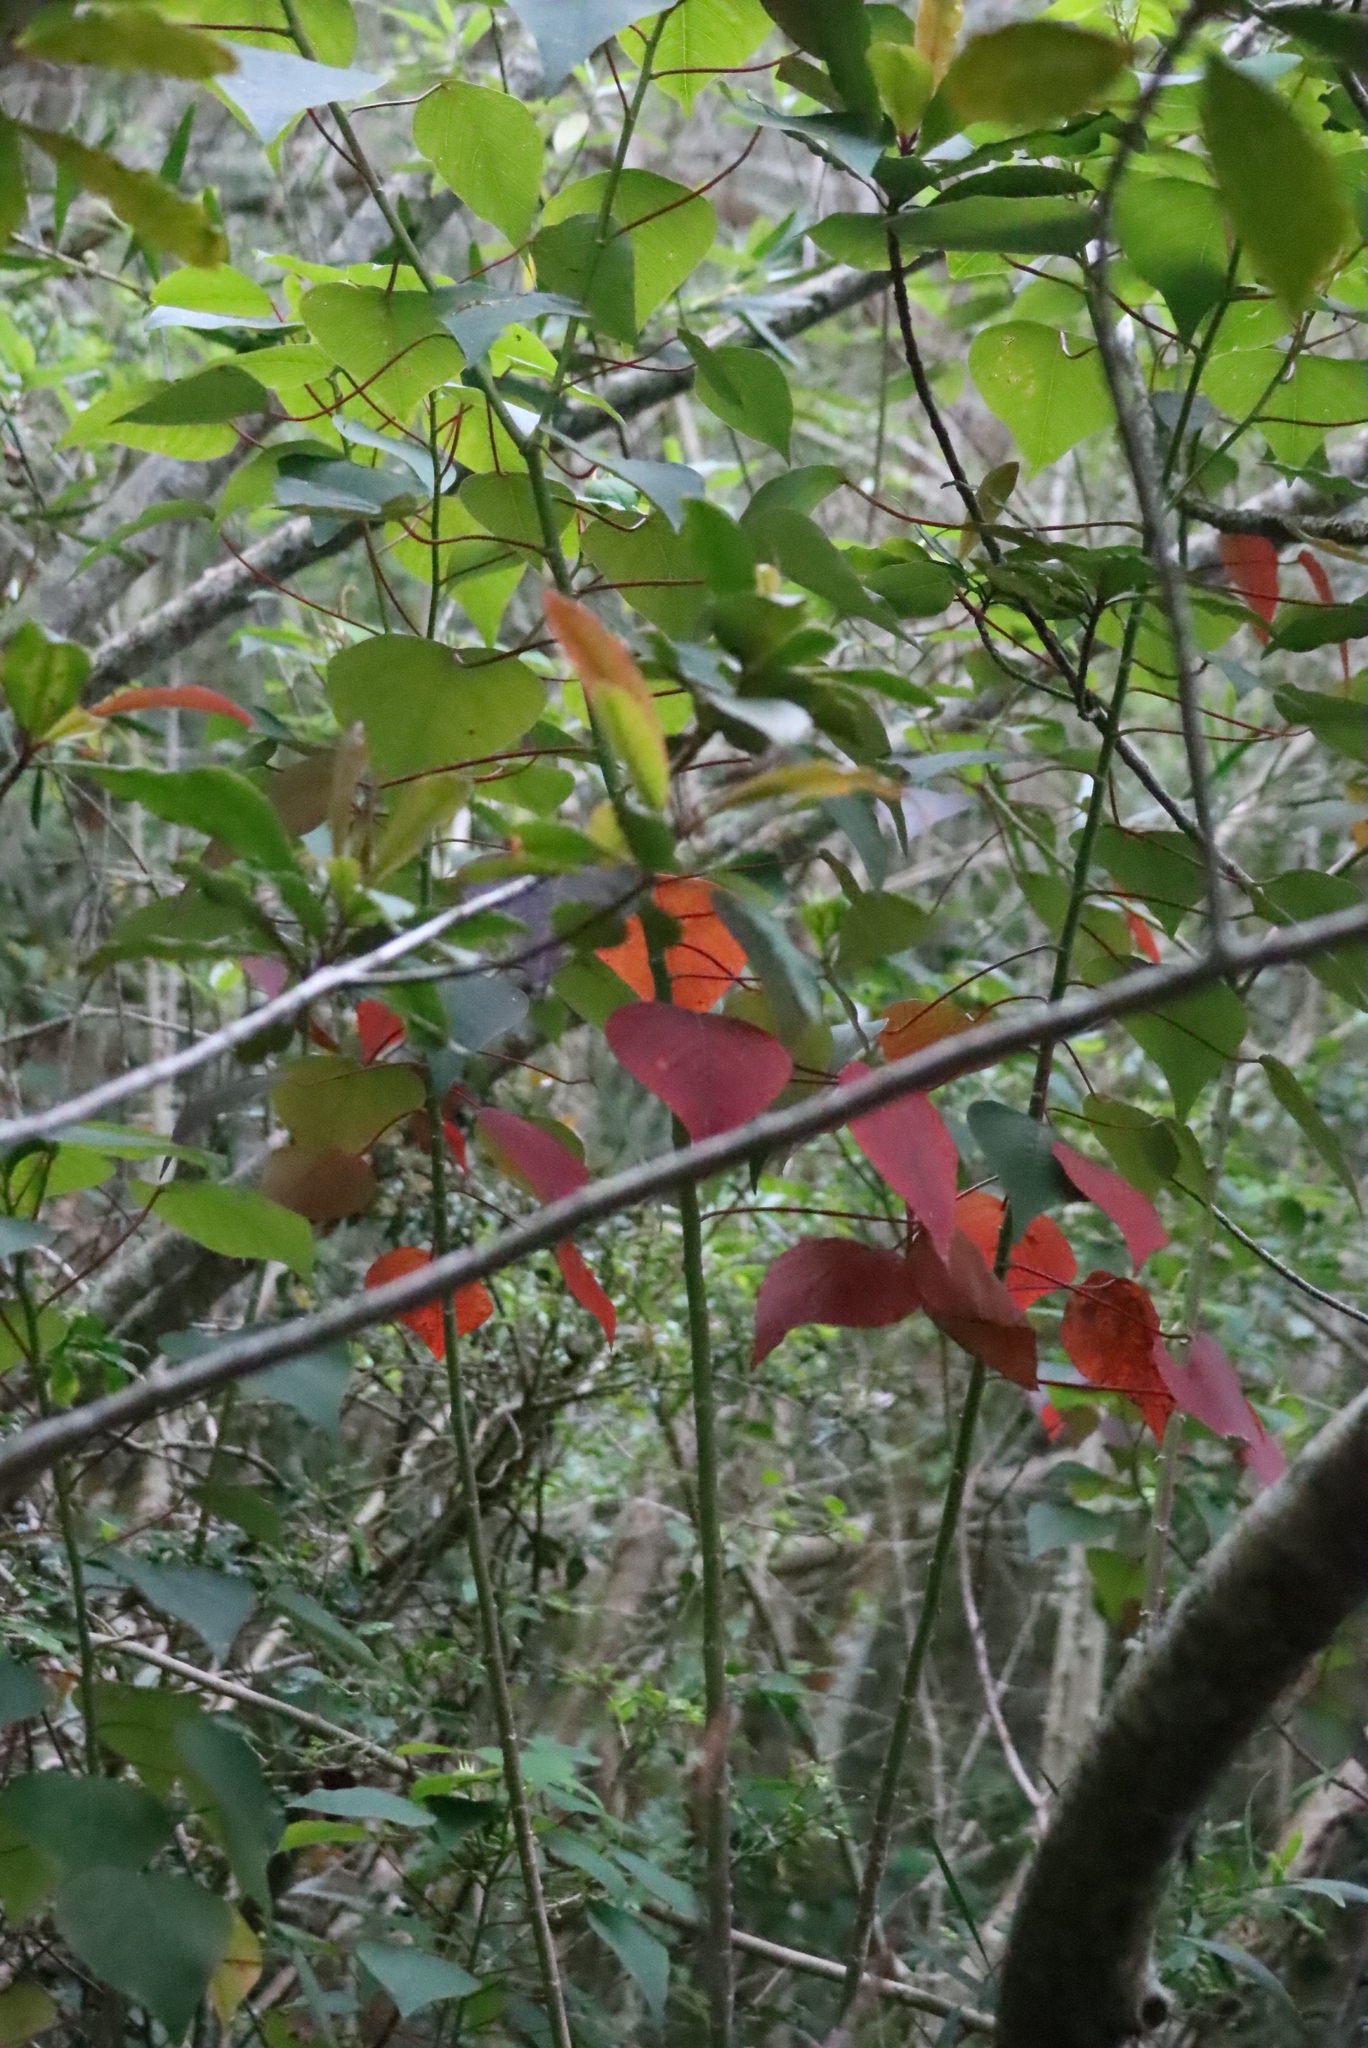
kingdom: Plantae
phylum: Tracheophyta
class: Magnoliopsida
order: Malpighiales
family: Euphorbiaceae
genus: Homalanthus
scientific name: Homalanthus populifolius
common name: Queensland poplar
